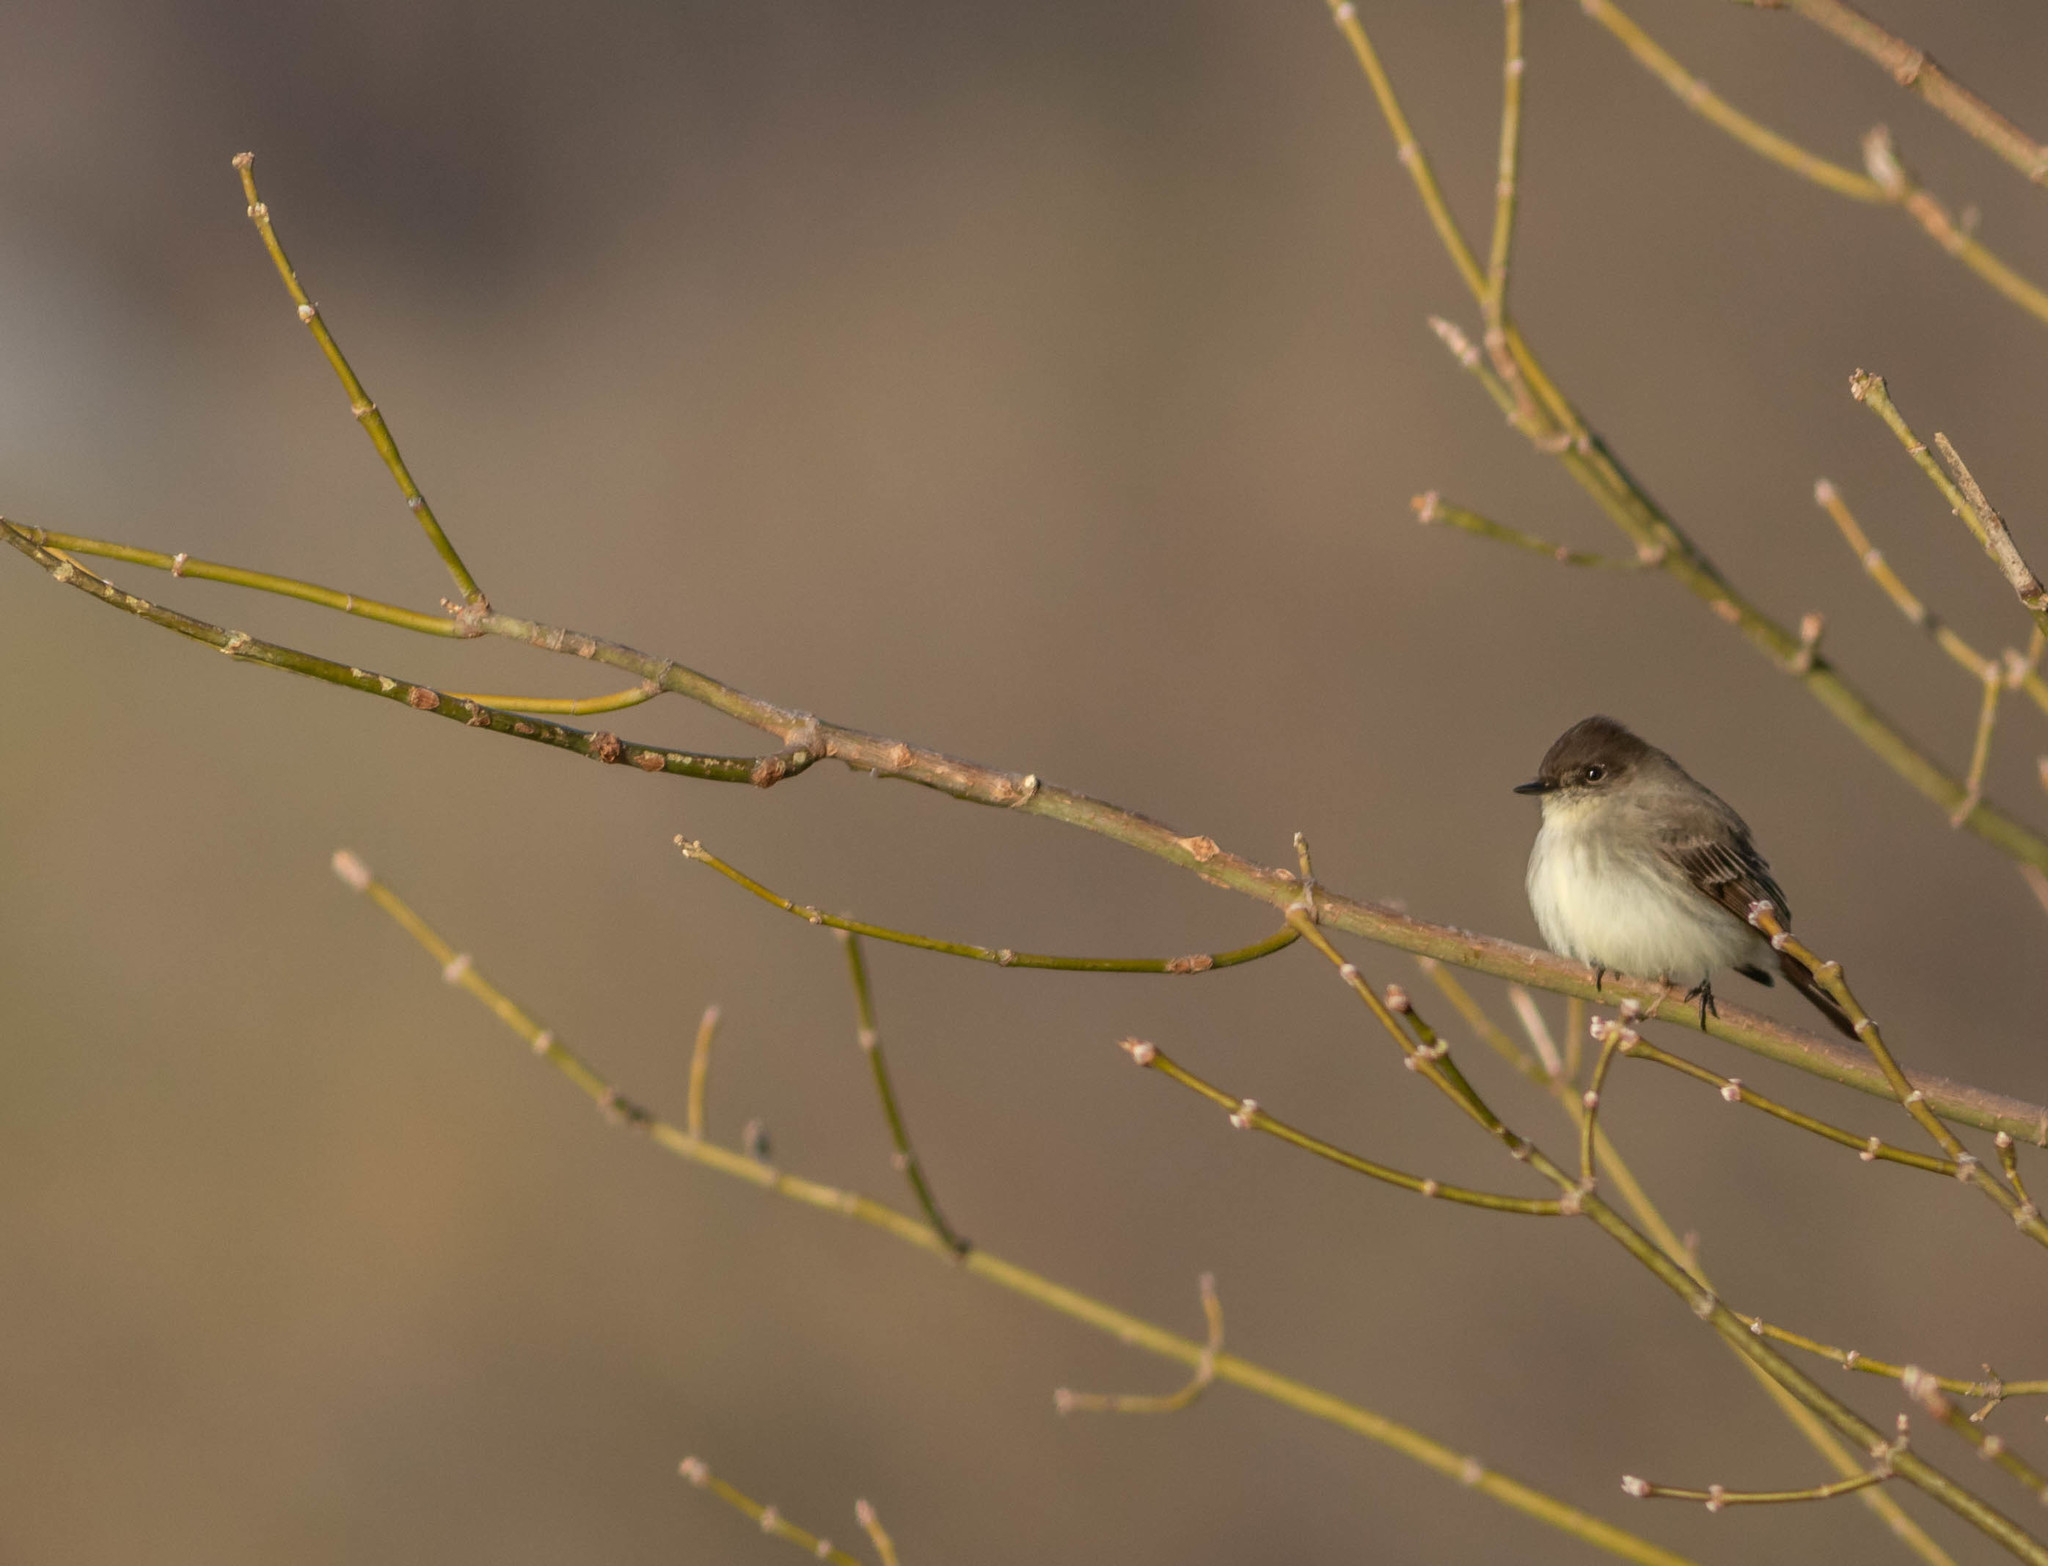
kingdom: Animalia
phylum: Chordata
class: Aves
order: Passeriformes
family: Tyrannidae
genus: Sayornis
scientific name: Sayornis phoebe
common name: Eastern phoebe
